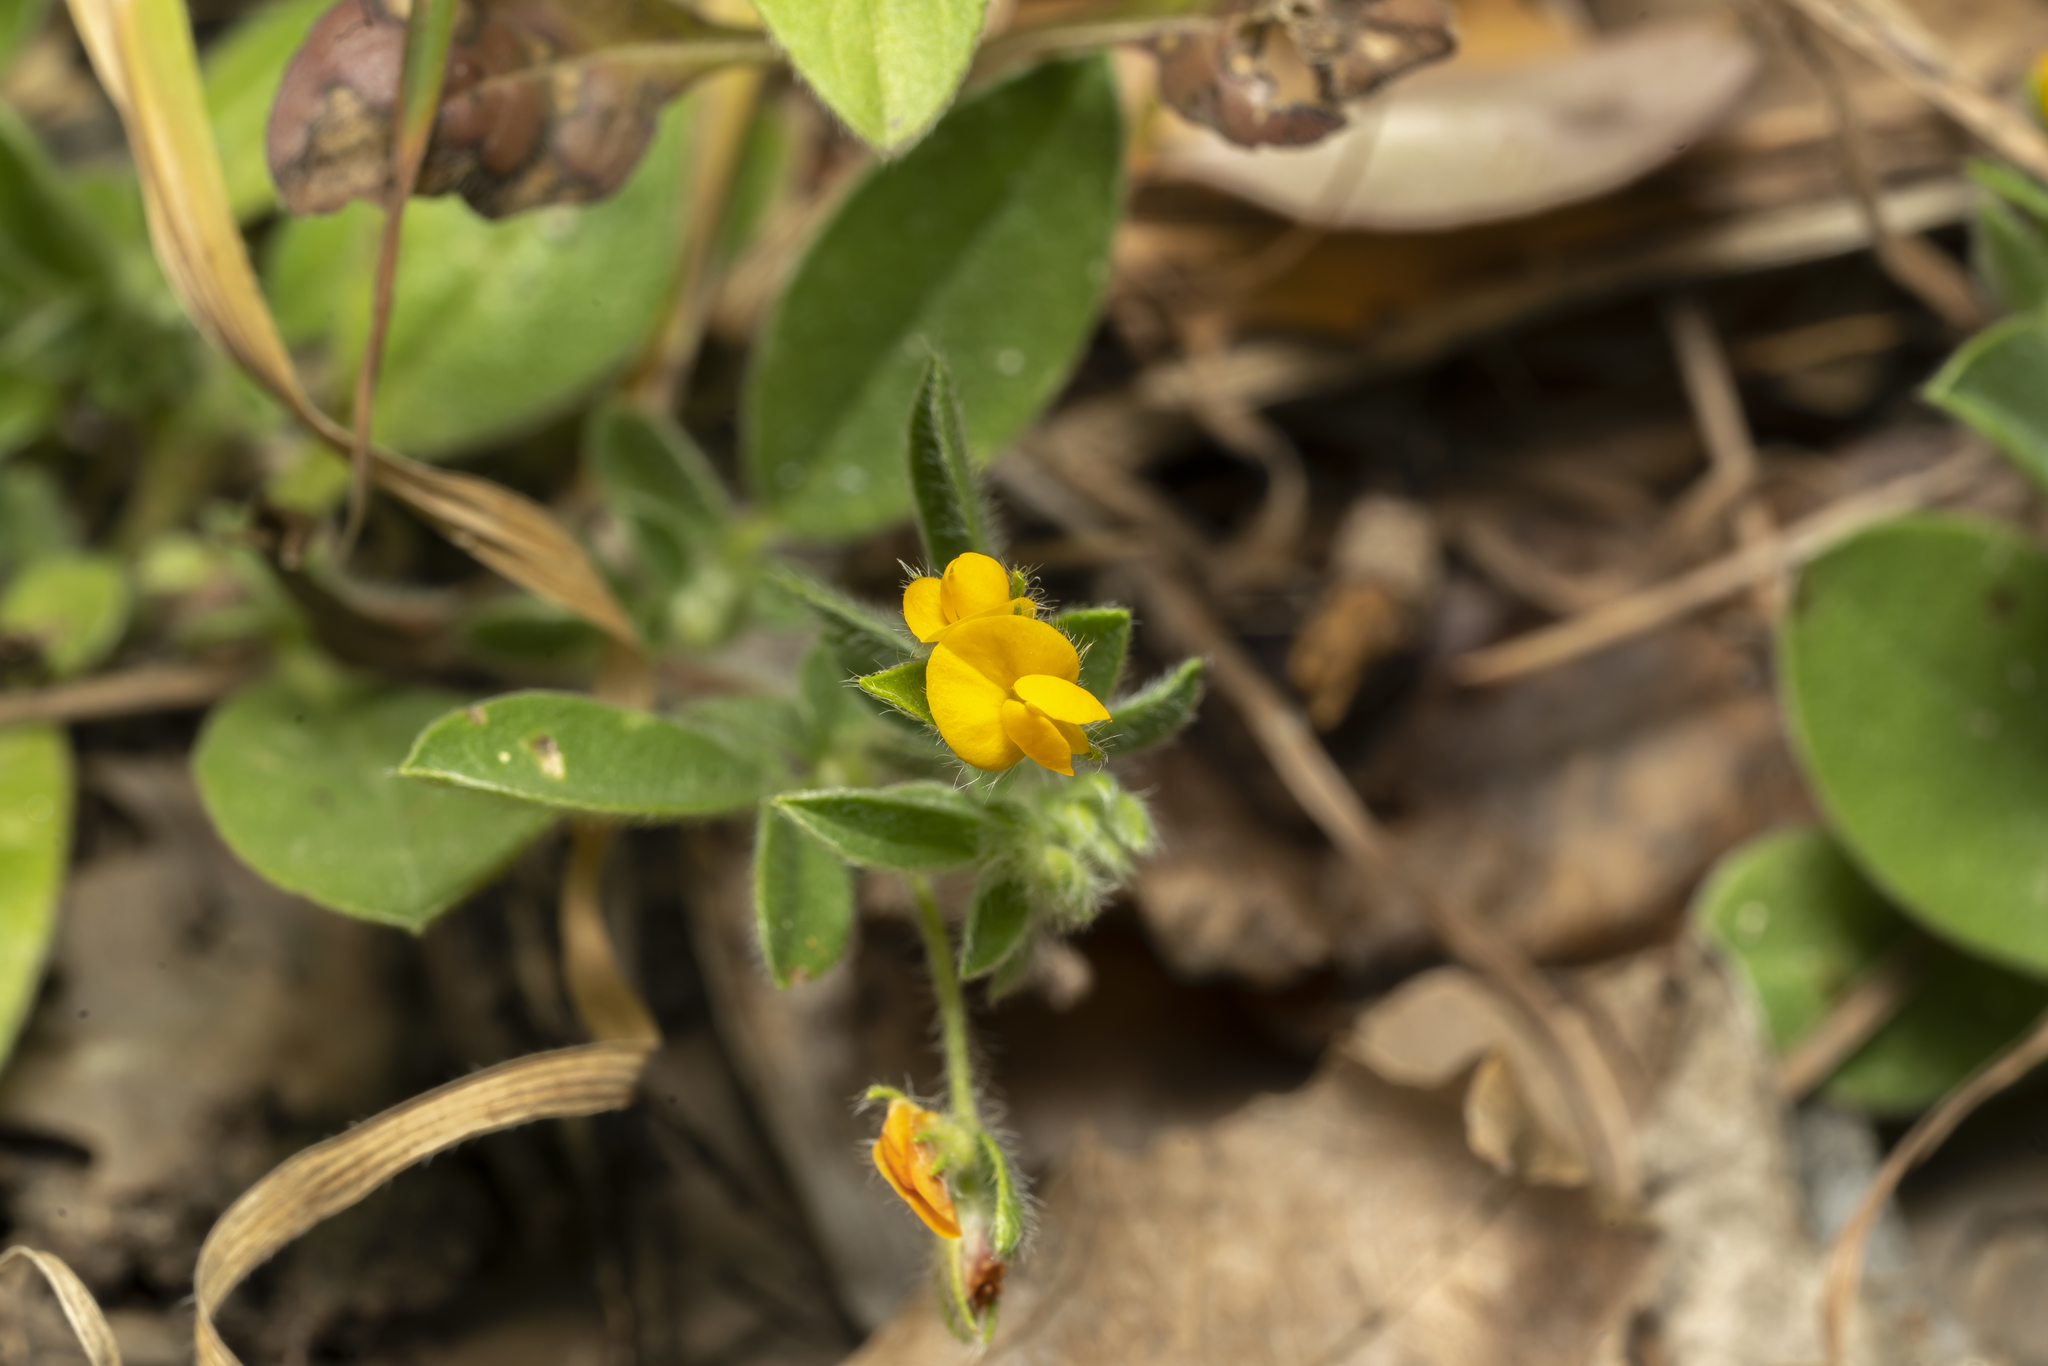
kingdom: Plantae
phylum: Tracheophyta
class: Magnoliopsida
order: Fabales
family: Fabaceae
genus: Anthyllis
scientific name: Anthyllis circinnata
